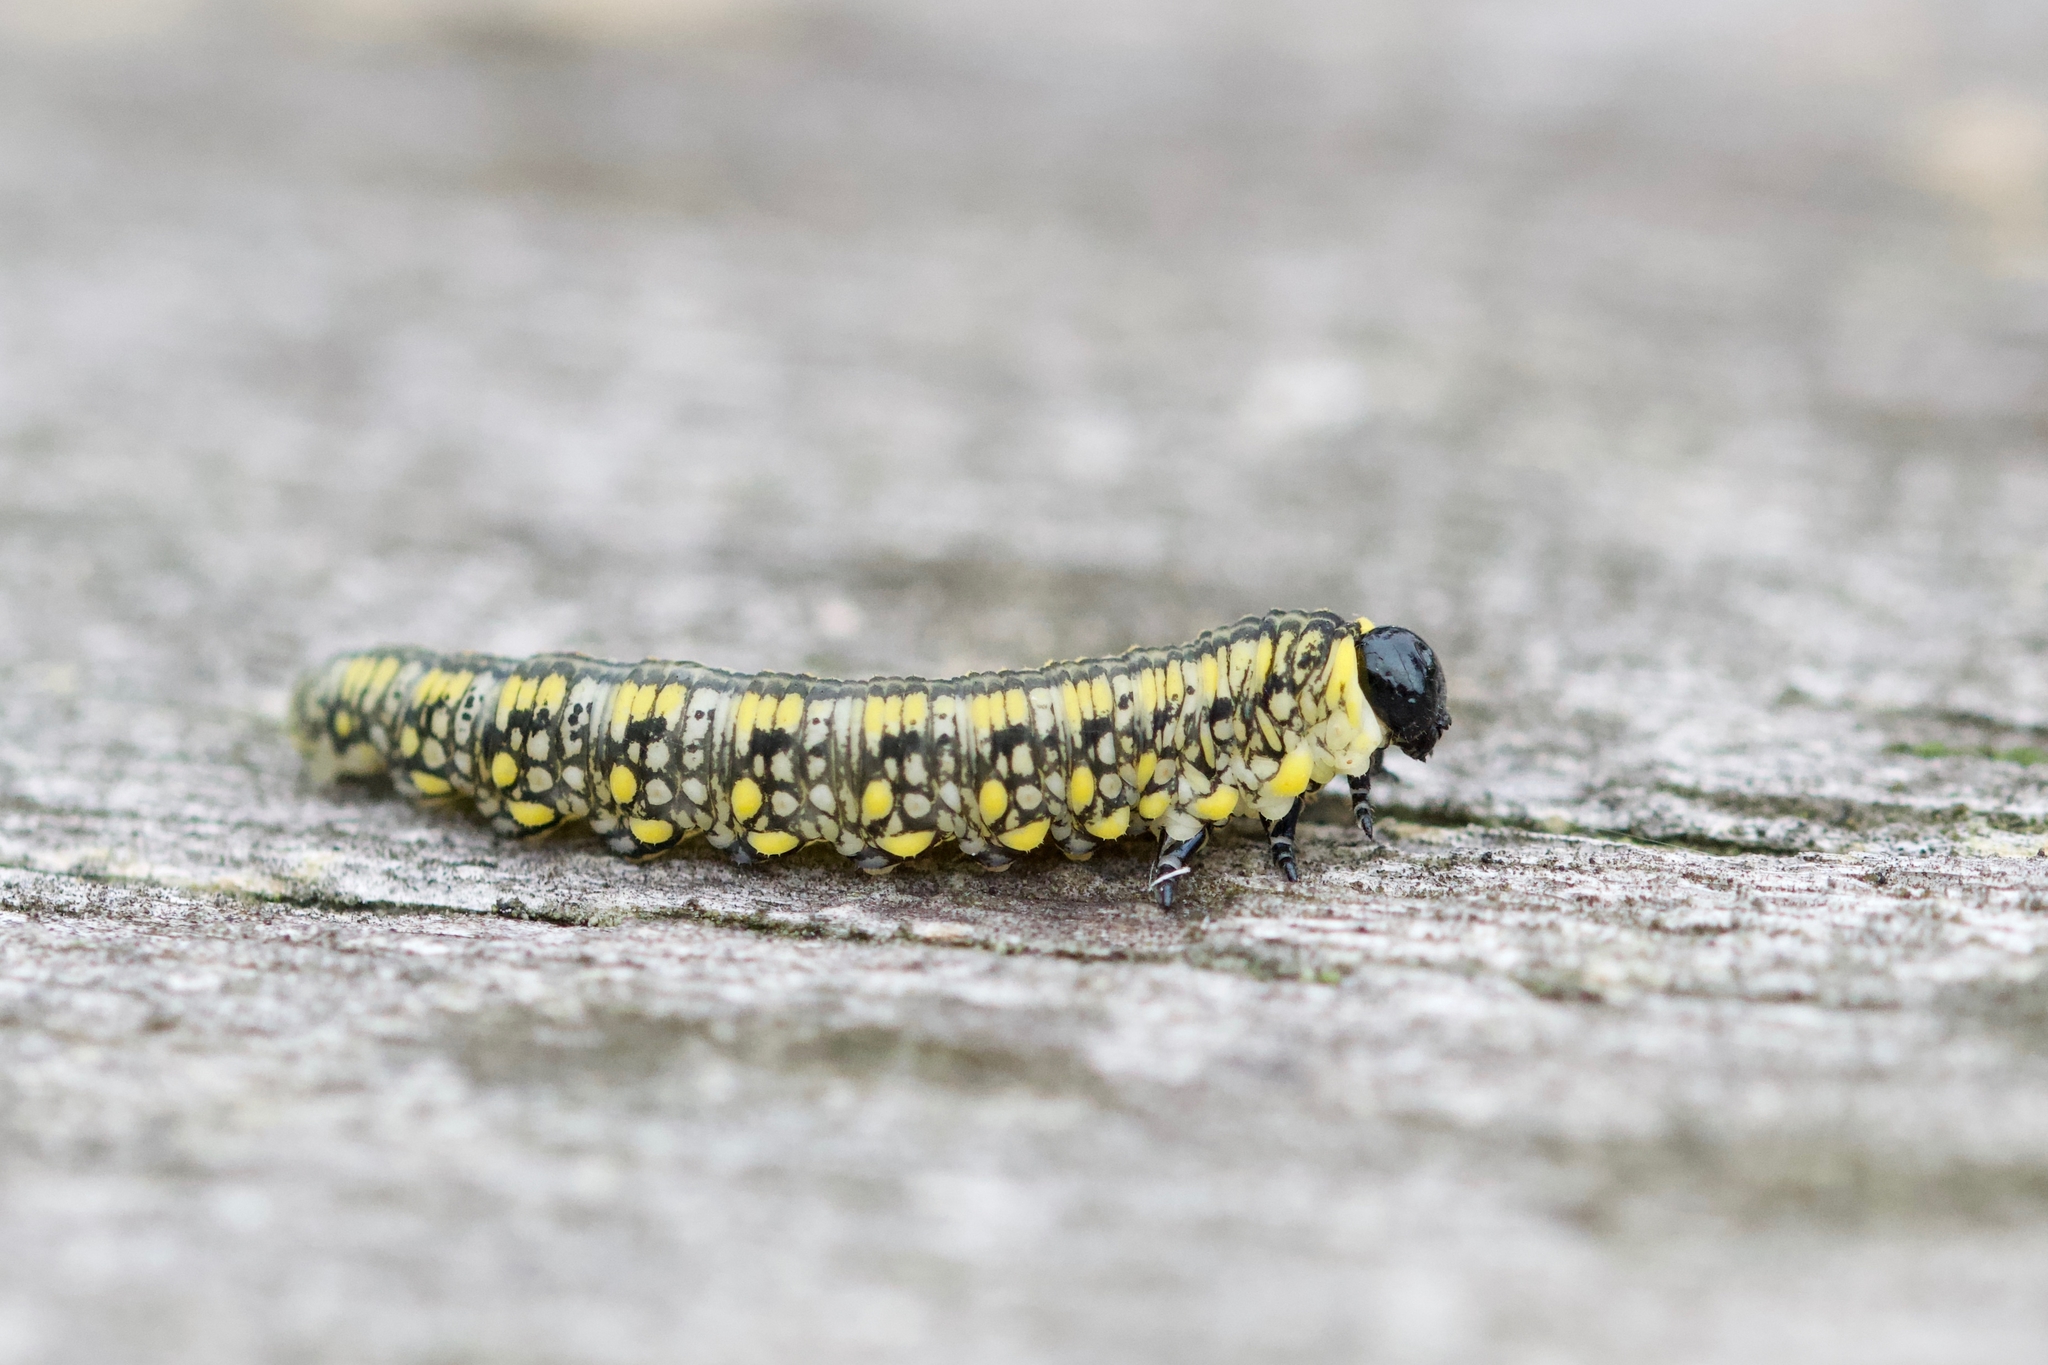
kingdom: Animalia
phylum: Arthropoda
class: Insecta
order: Hymenoptera
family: Diprionidae
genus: Diprion
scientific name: Diprion similis
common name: Pine sawfly
